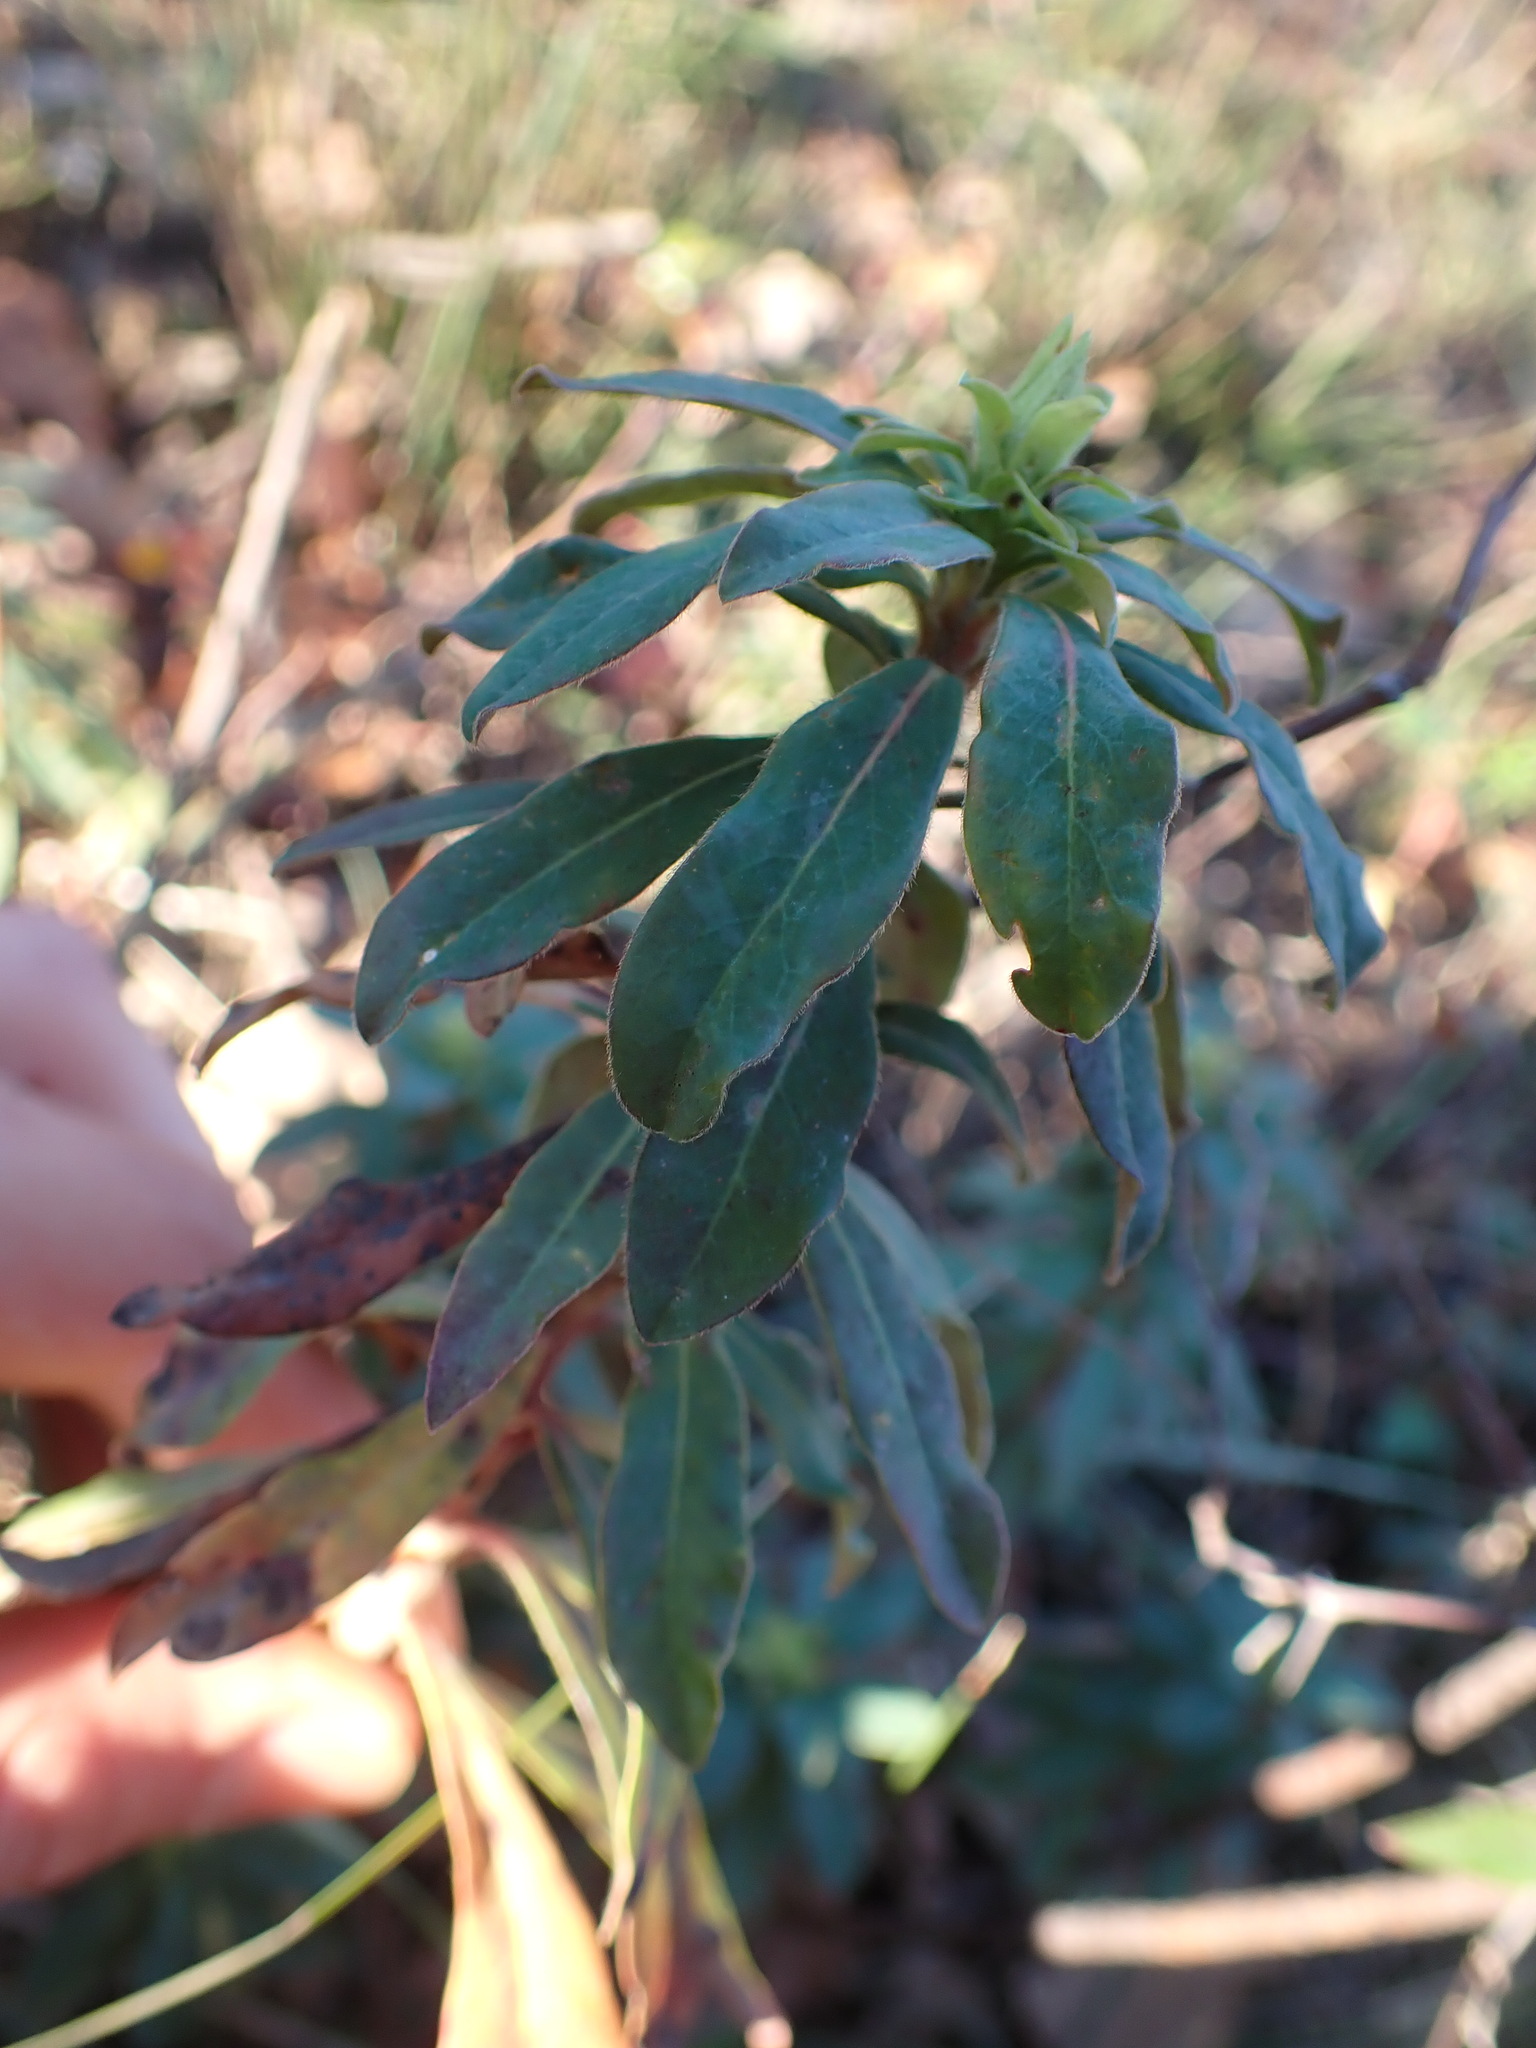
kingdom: Plantae
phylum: Tracheophyta
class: Magnoliopsida
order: Malpighiales
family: Euphorbiaceae
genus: Euphorbia
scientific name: Euphorbia amygdaloides
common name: Wood spurge
